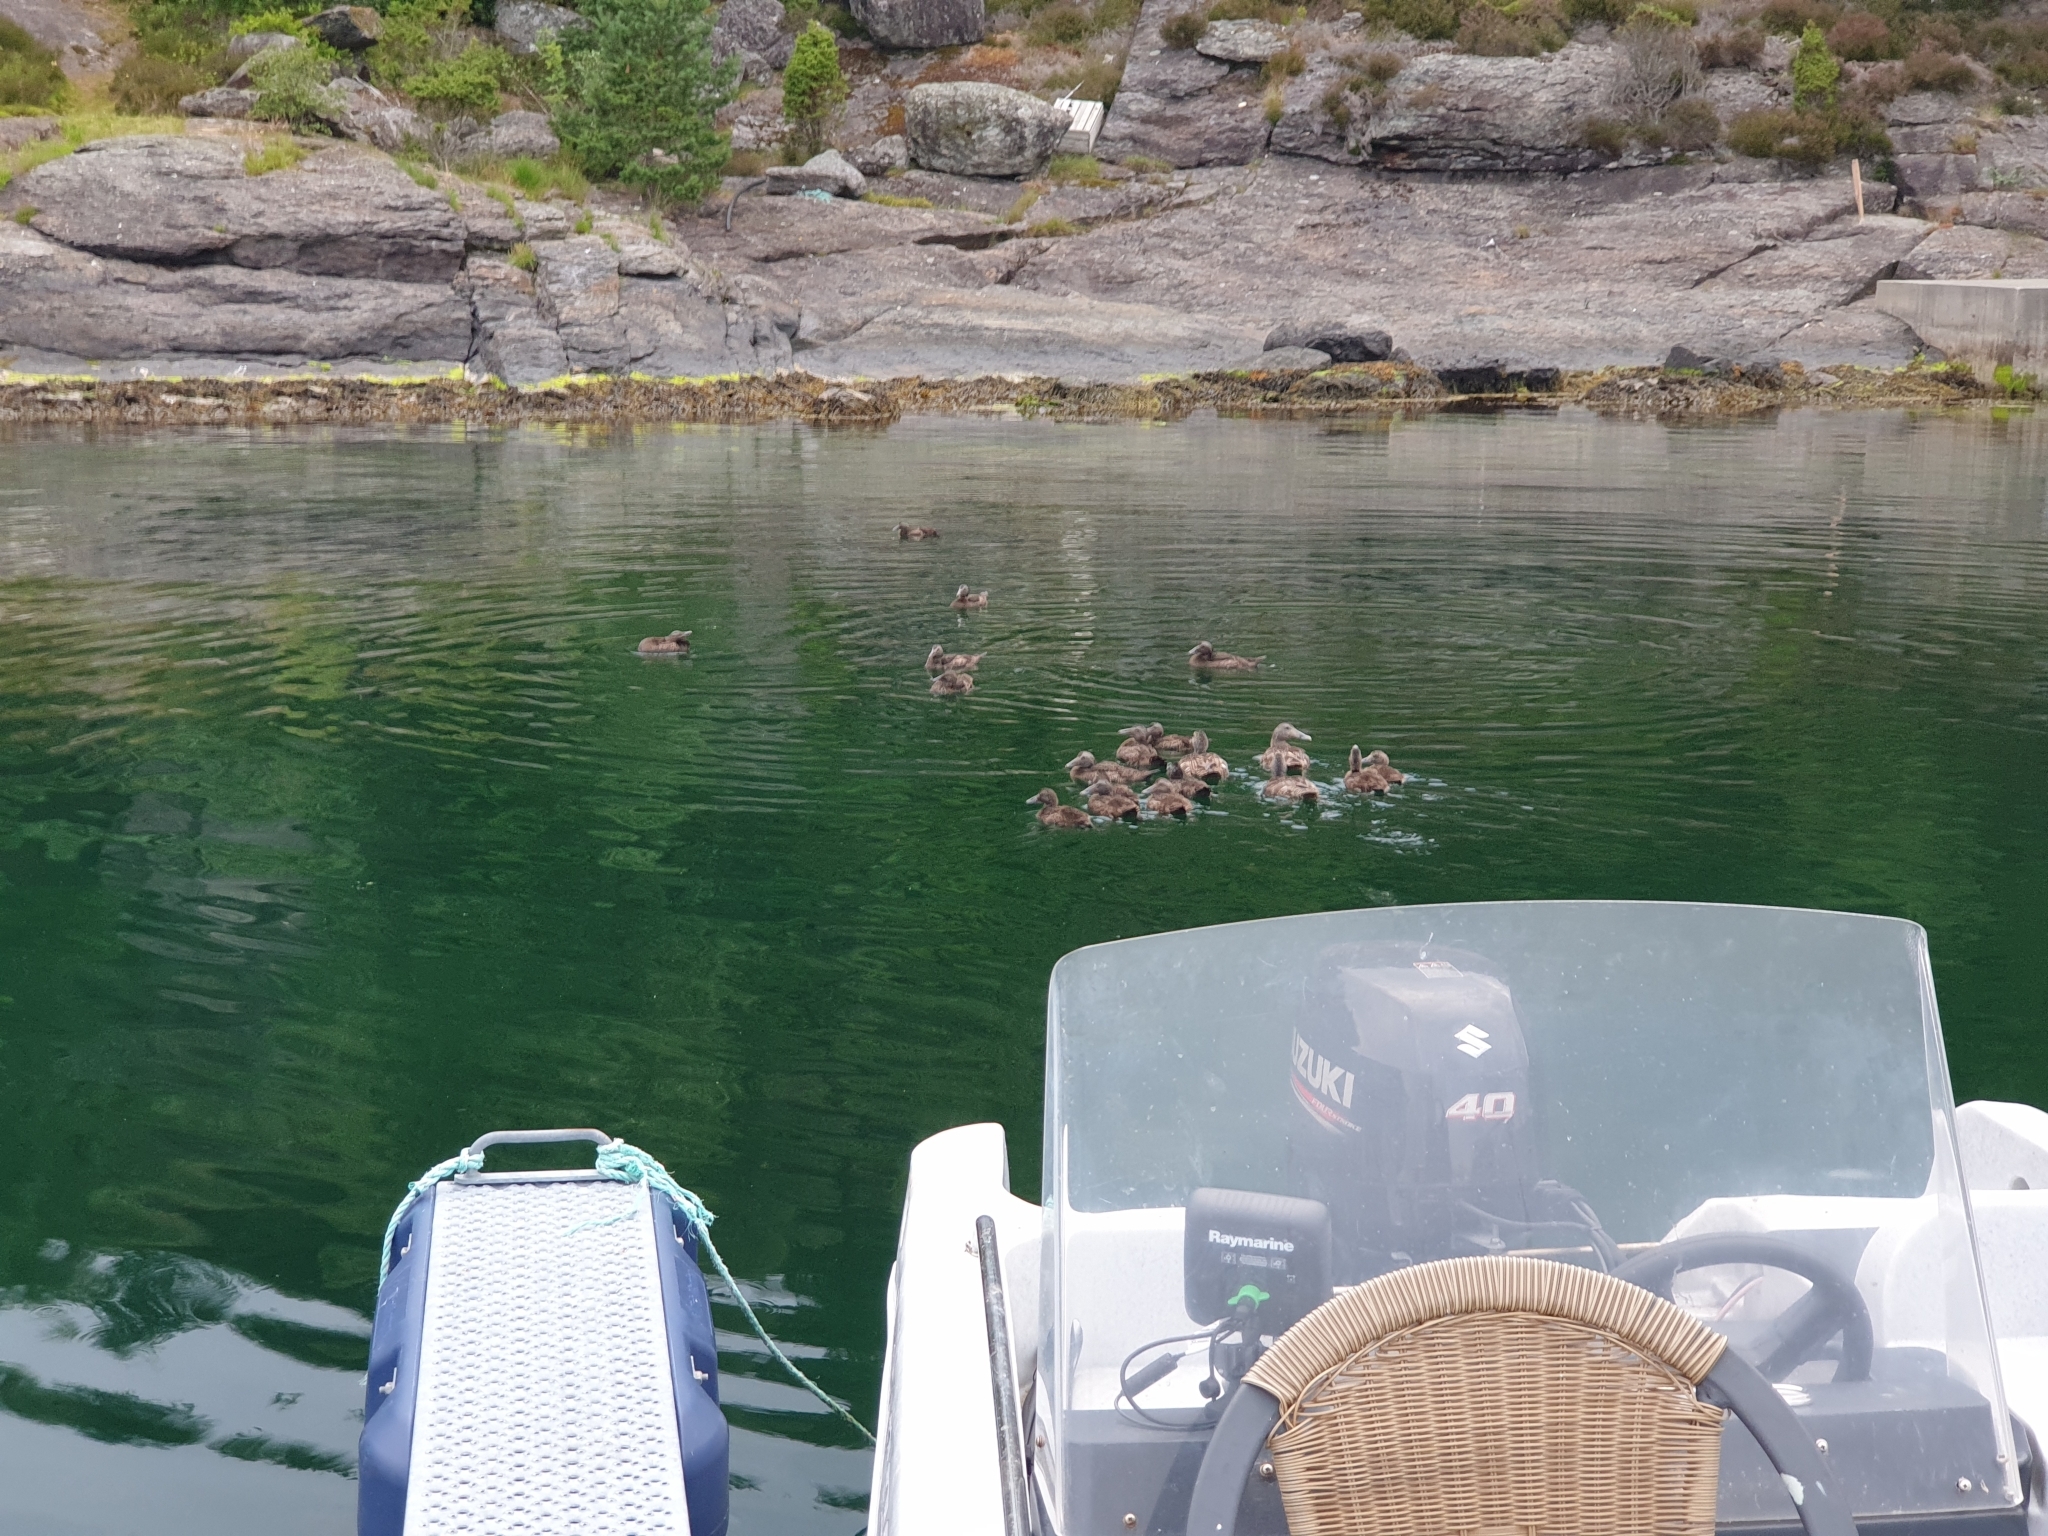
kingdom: Animalia
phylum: Chordata
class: Aves
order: Anseriformes
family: Anatidae
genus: Somateria
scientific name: Somateria mollissima
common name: Common eider
